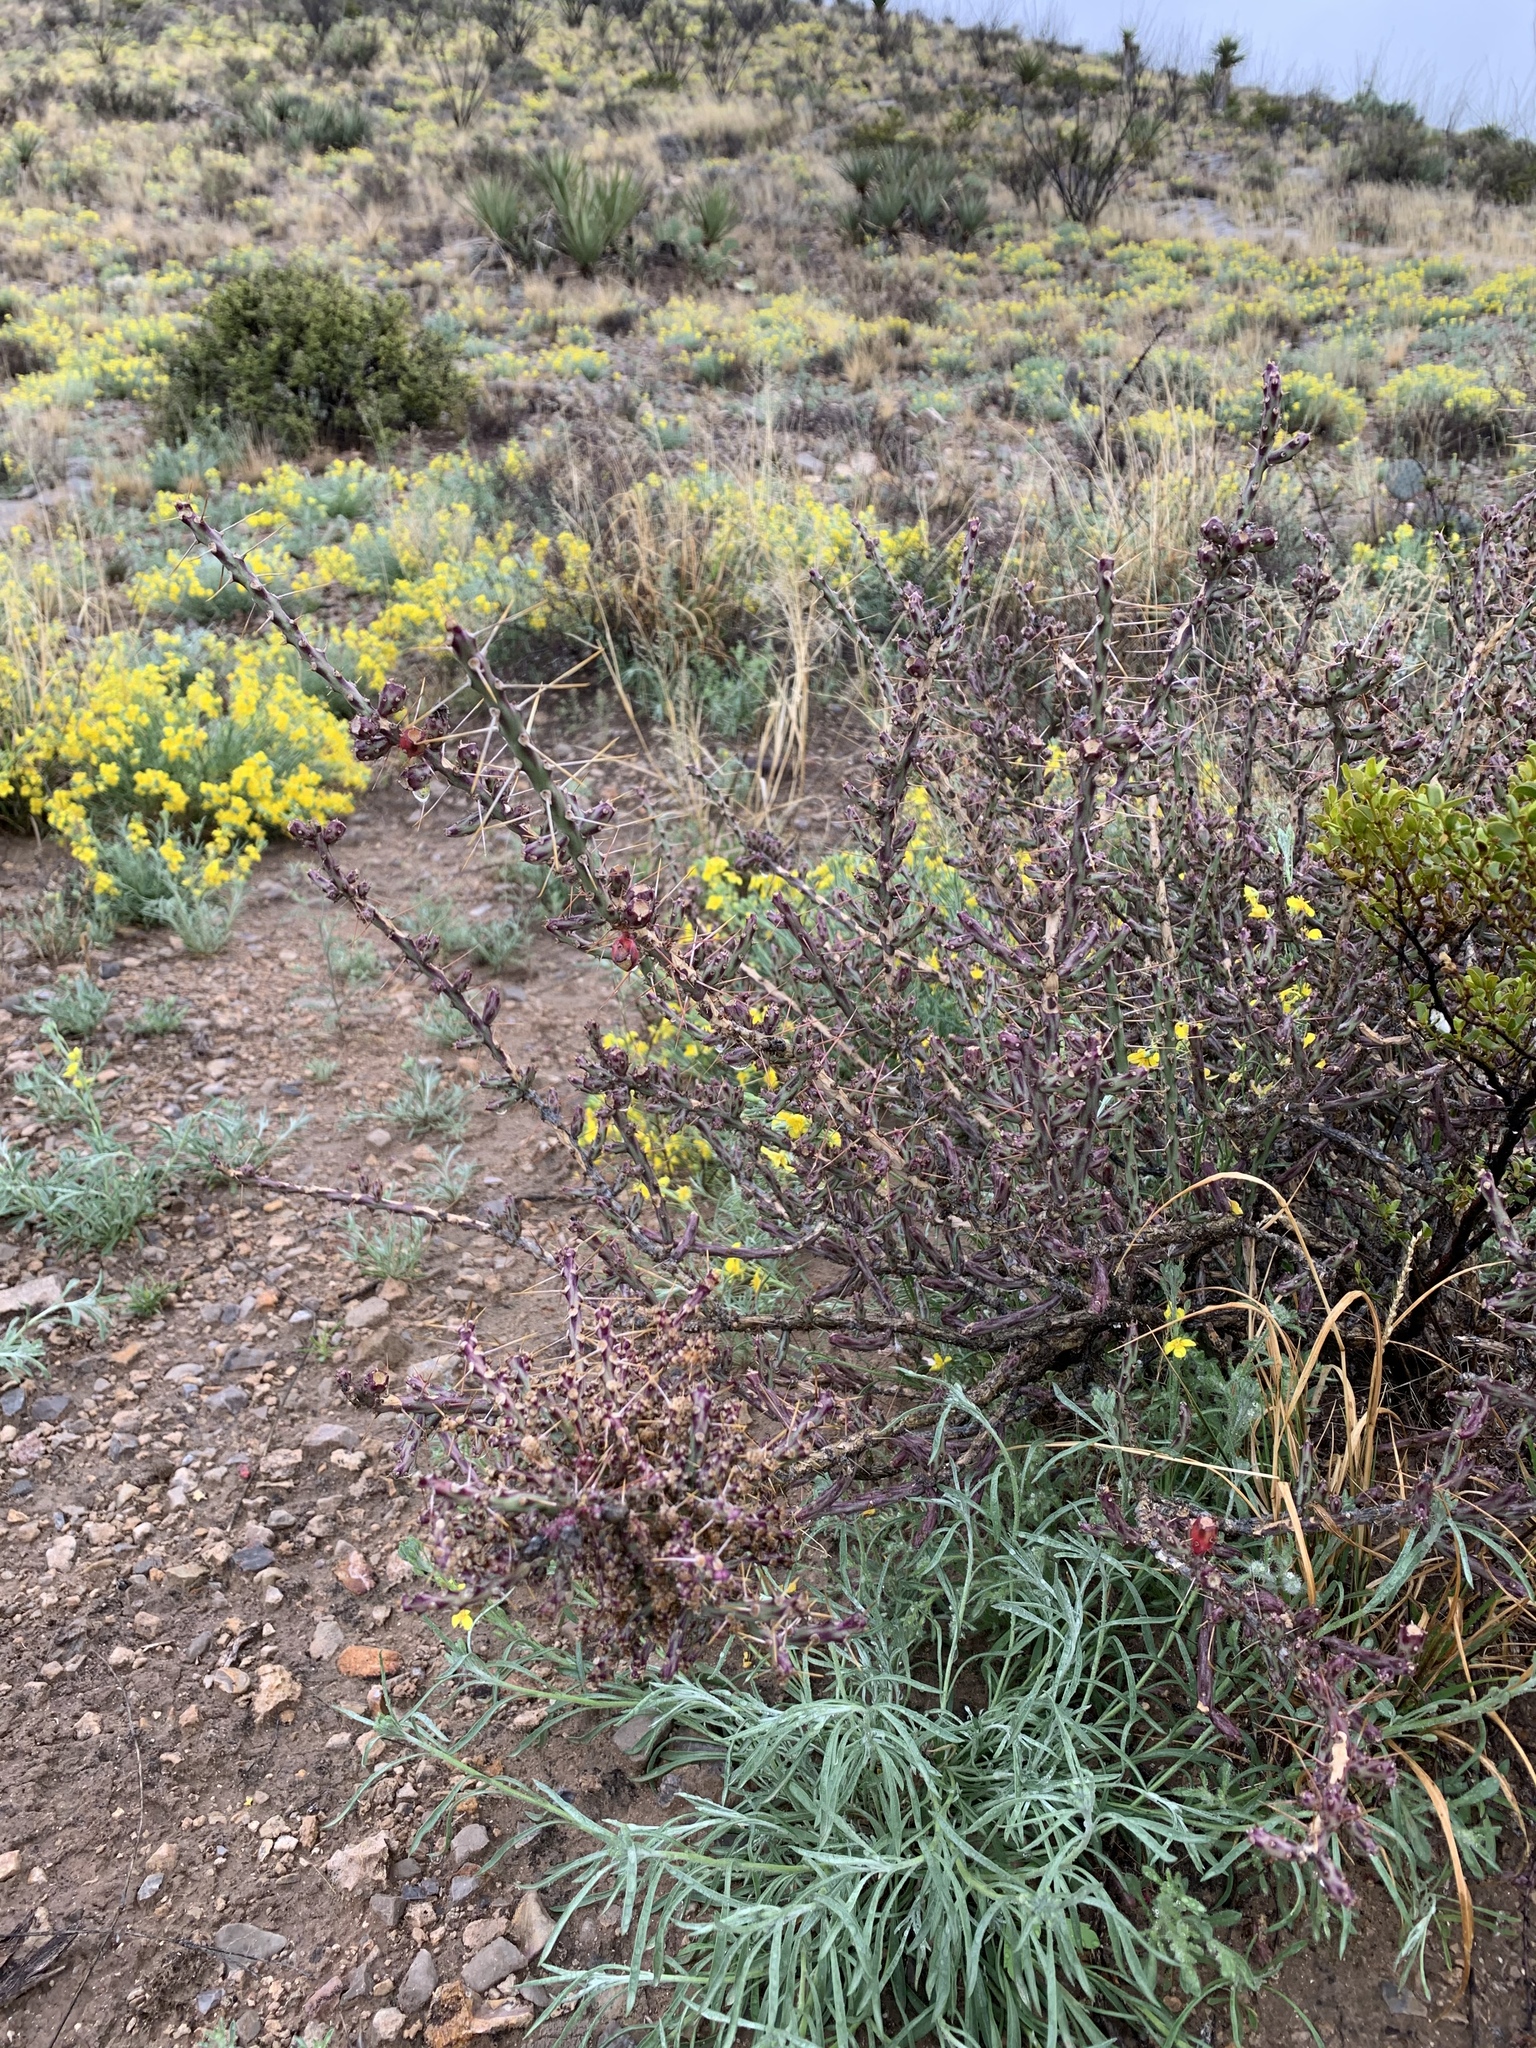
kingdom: Plantae
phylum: Tracheophyta
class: Magnoliopsida
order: Caryophyllales
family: Cactaceae
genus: Cylindropuntia
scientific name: Cylindropuntia leptocaulis
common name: Christmas cactus
